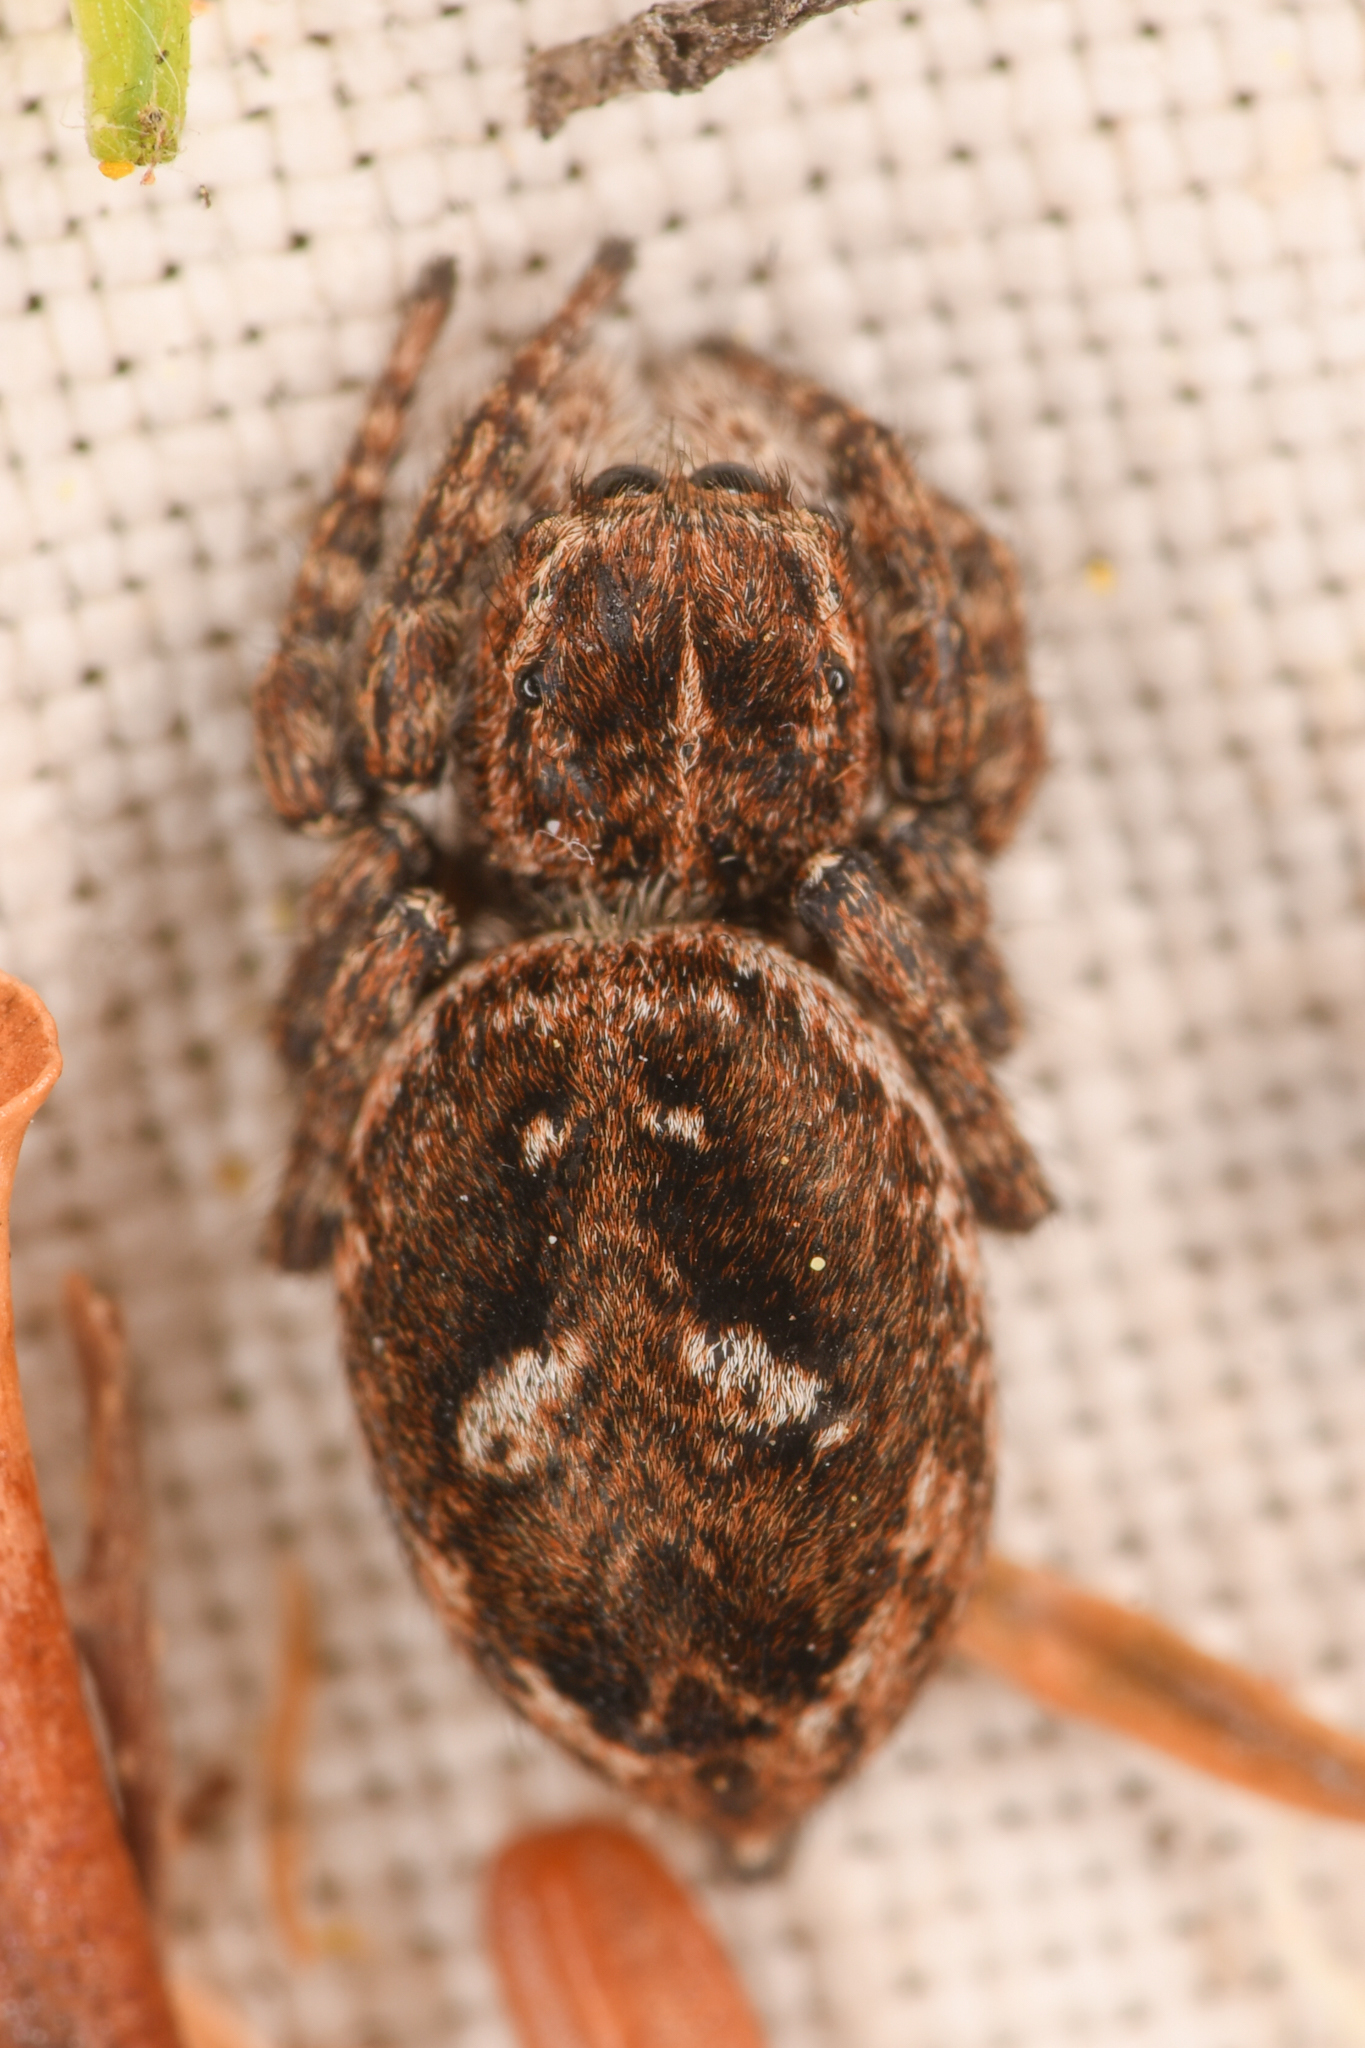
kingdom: Animalia
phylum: Arthropoda
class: Arachnida
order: Araneae
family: Salticidae
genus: Attulus
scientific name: Attulus floricola
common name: Flower jumping spider
